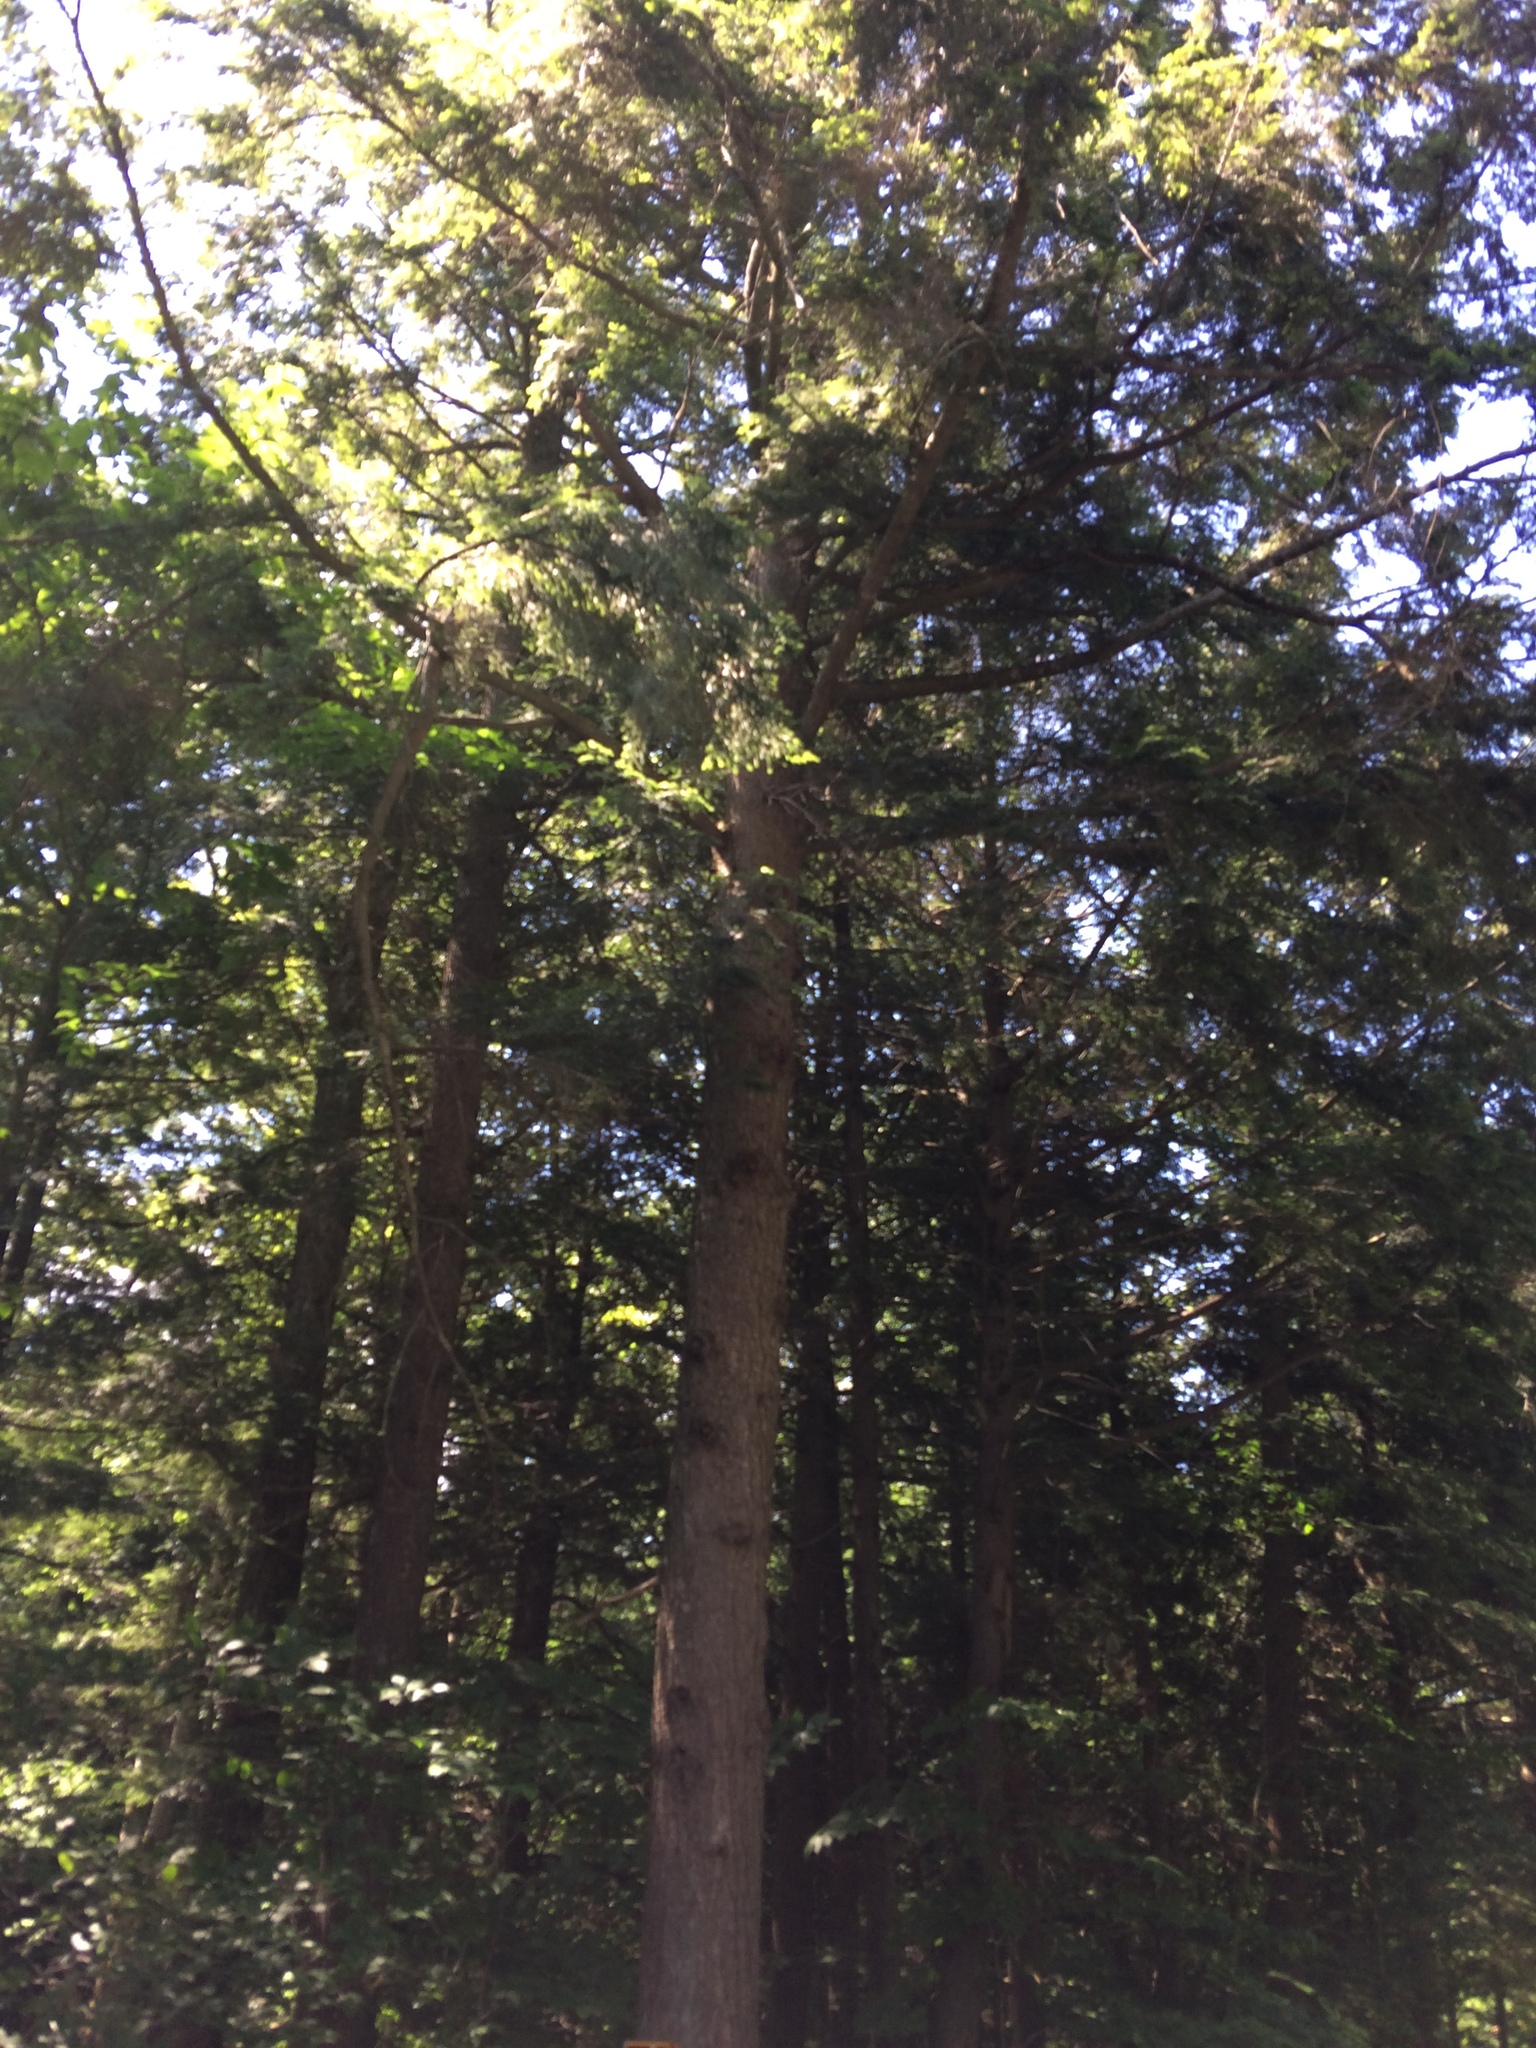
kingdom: Plantae
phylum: Tracheophyta
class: Pinopsida
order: Pinales
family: Pinaceae
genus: Tsuga
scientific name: Tsuga canadensis
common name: Eastern hemlock
